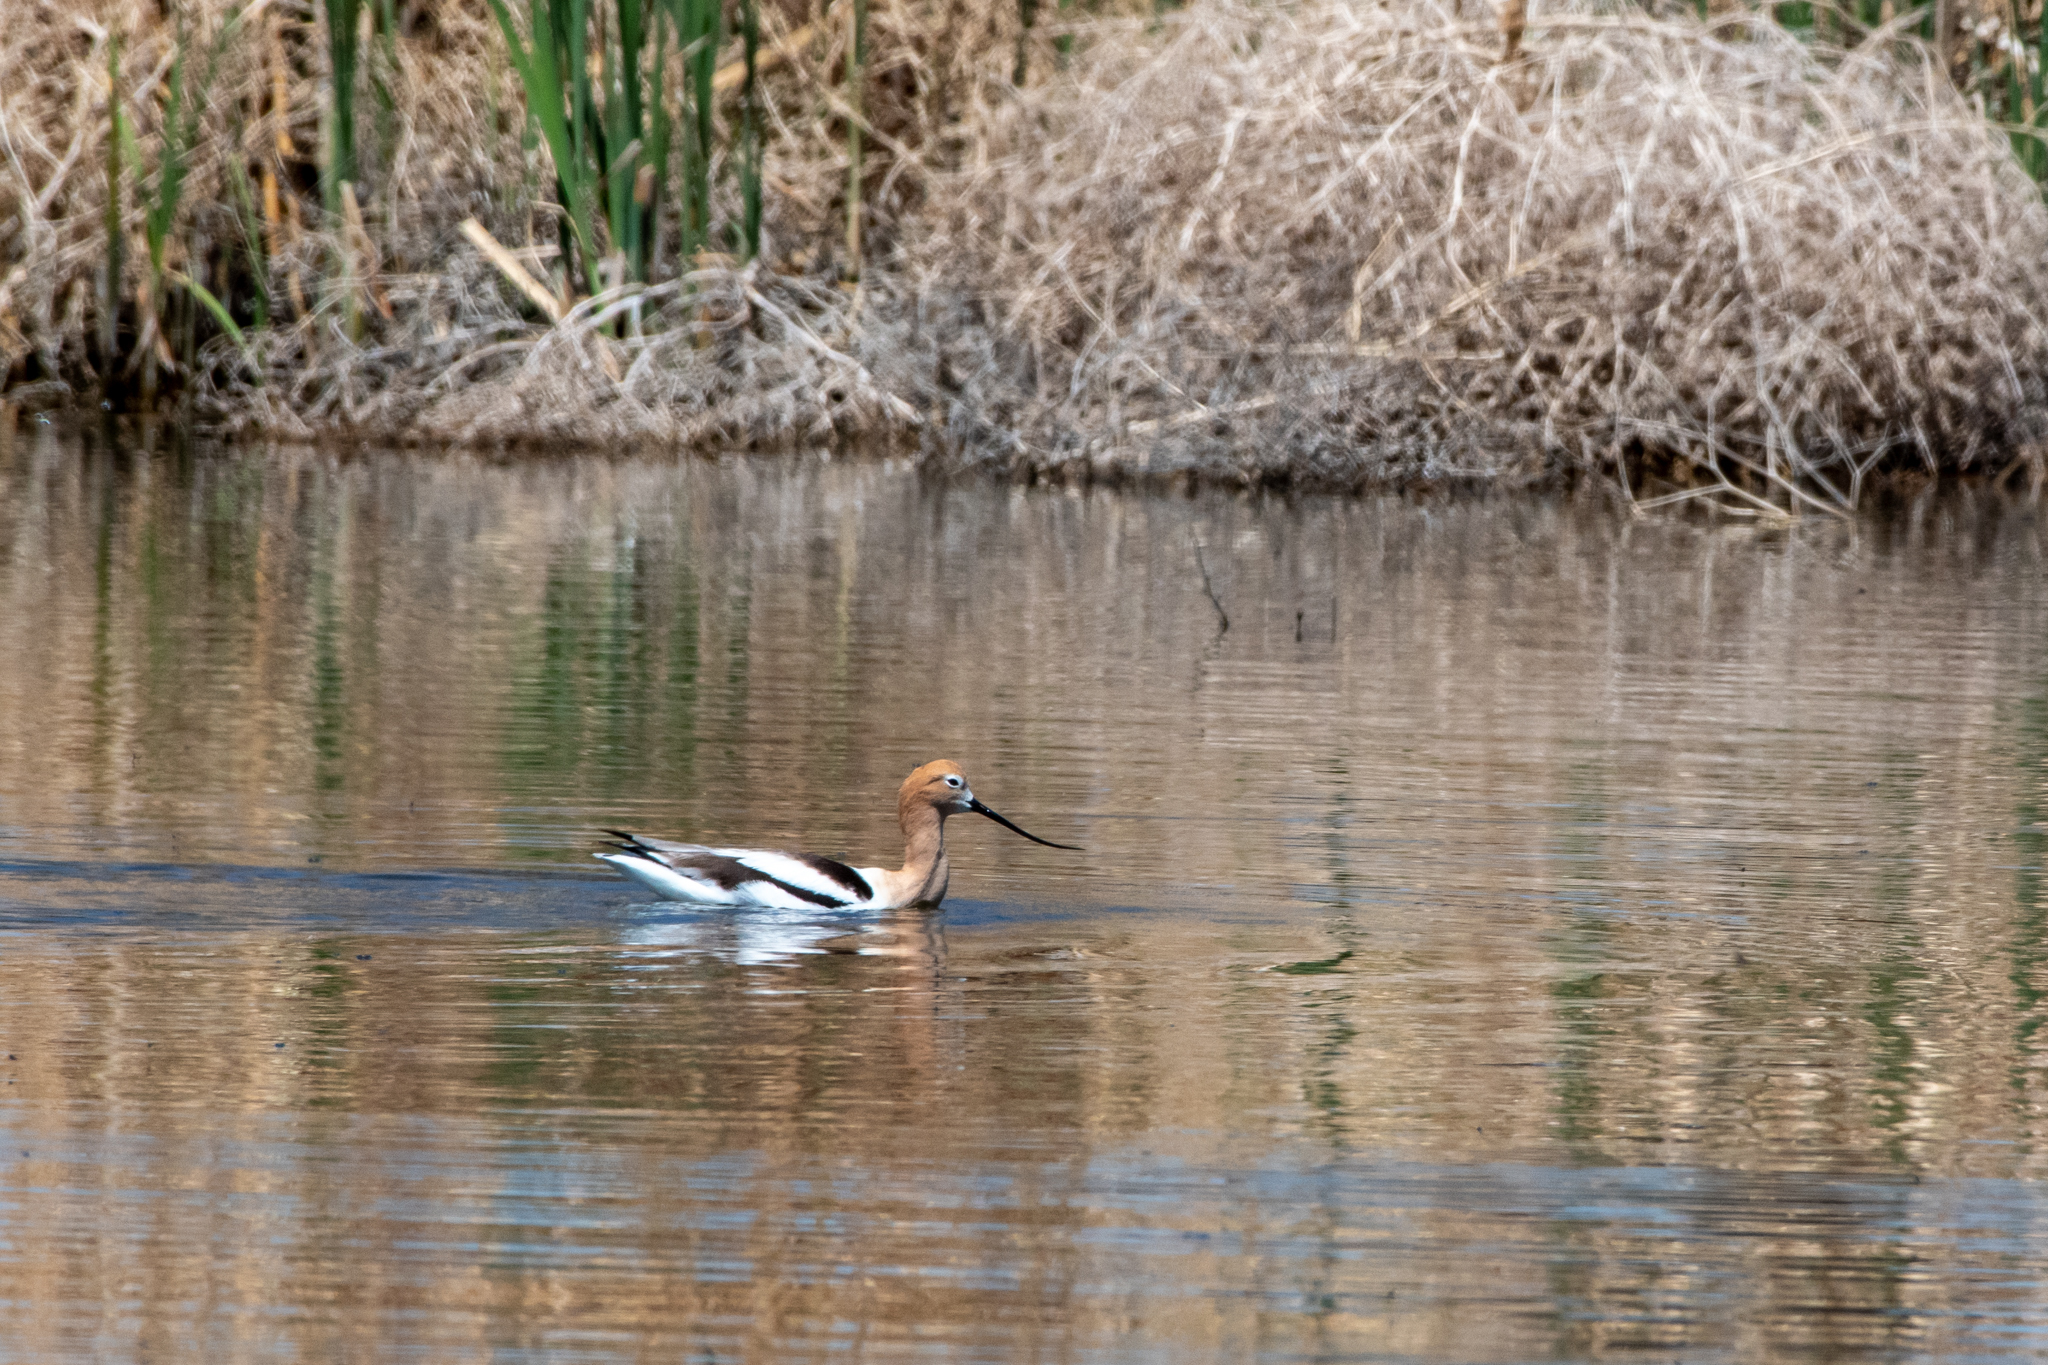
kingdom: Animalia
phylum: Chordata
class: Aves
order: Charadriiformes
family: Recurvirostridae
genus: Recurvirostra
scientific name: Recurvirostra americana
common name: American avocet
